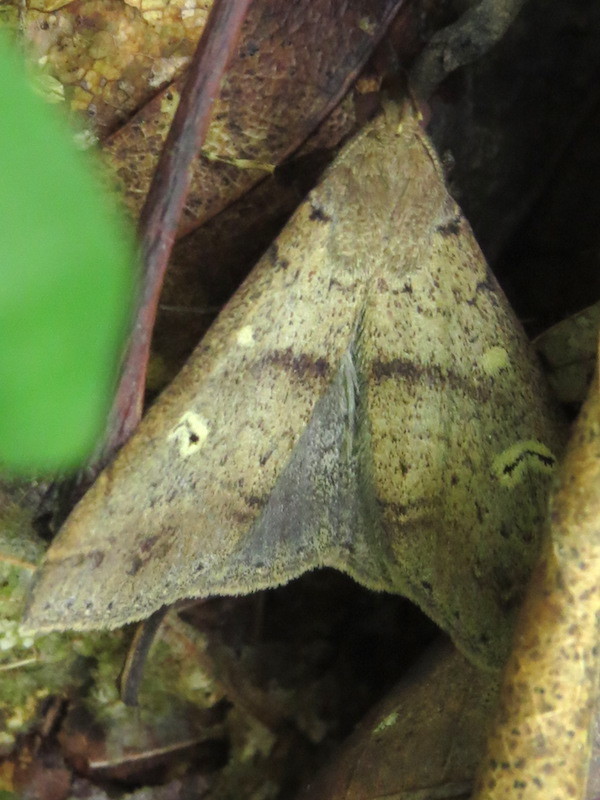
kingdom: Animalia
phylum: Arthropoda
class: Insecta
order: Lepidoptera
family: Erebidae
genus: Renia
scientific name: Renia discoloralis
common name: Discolored renia moth
